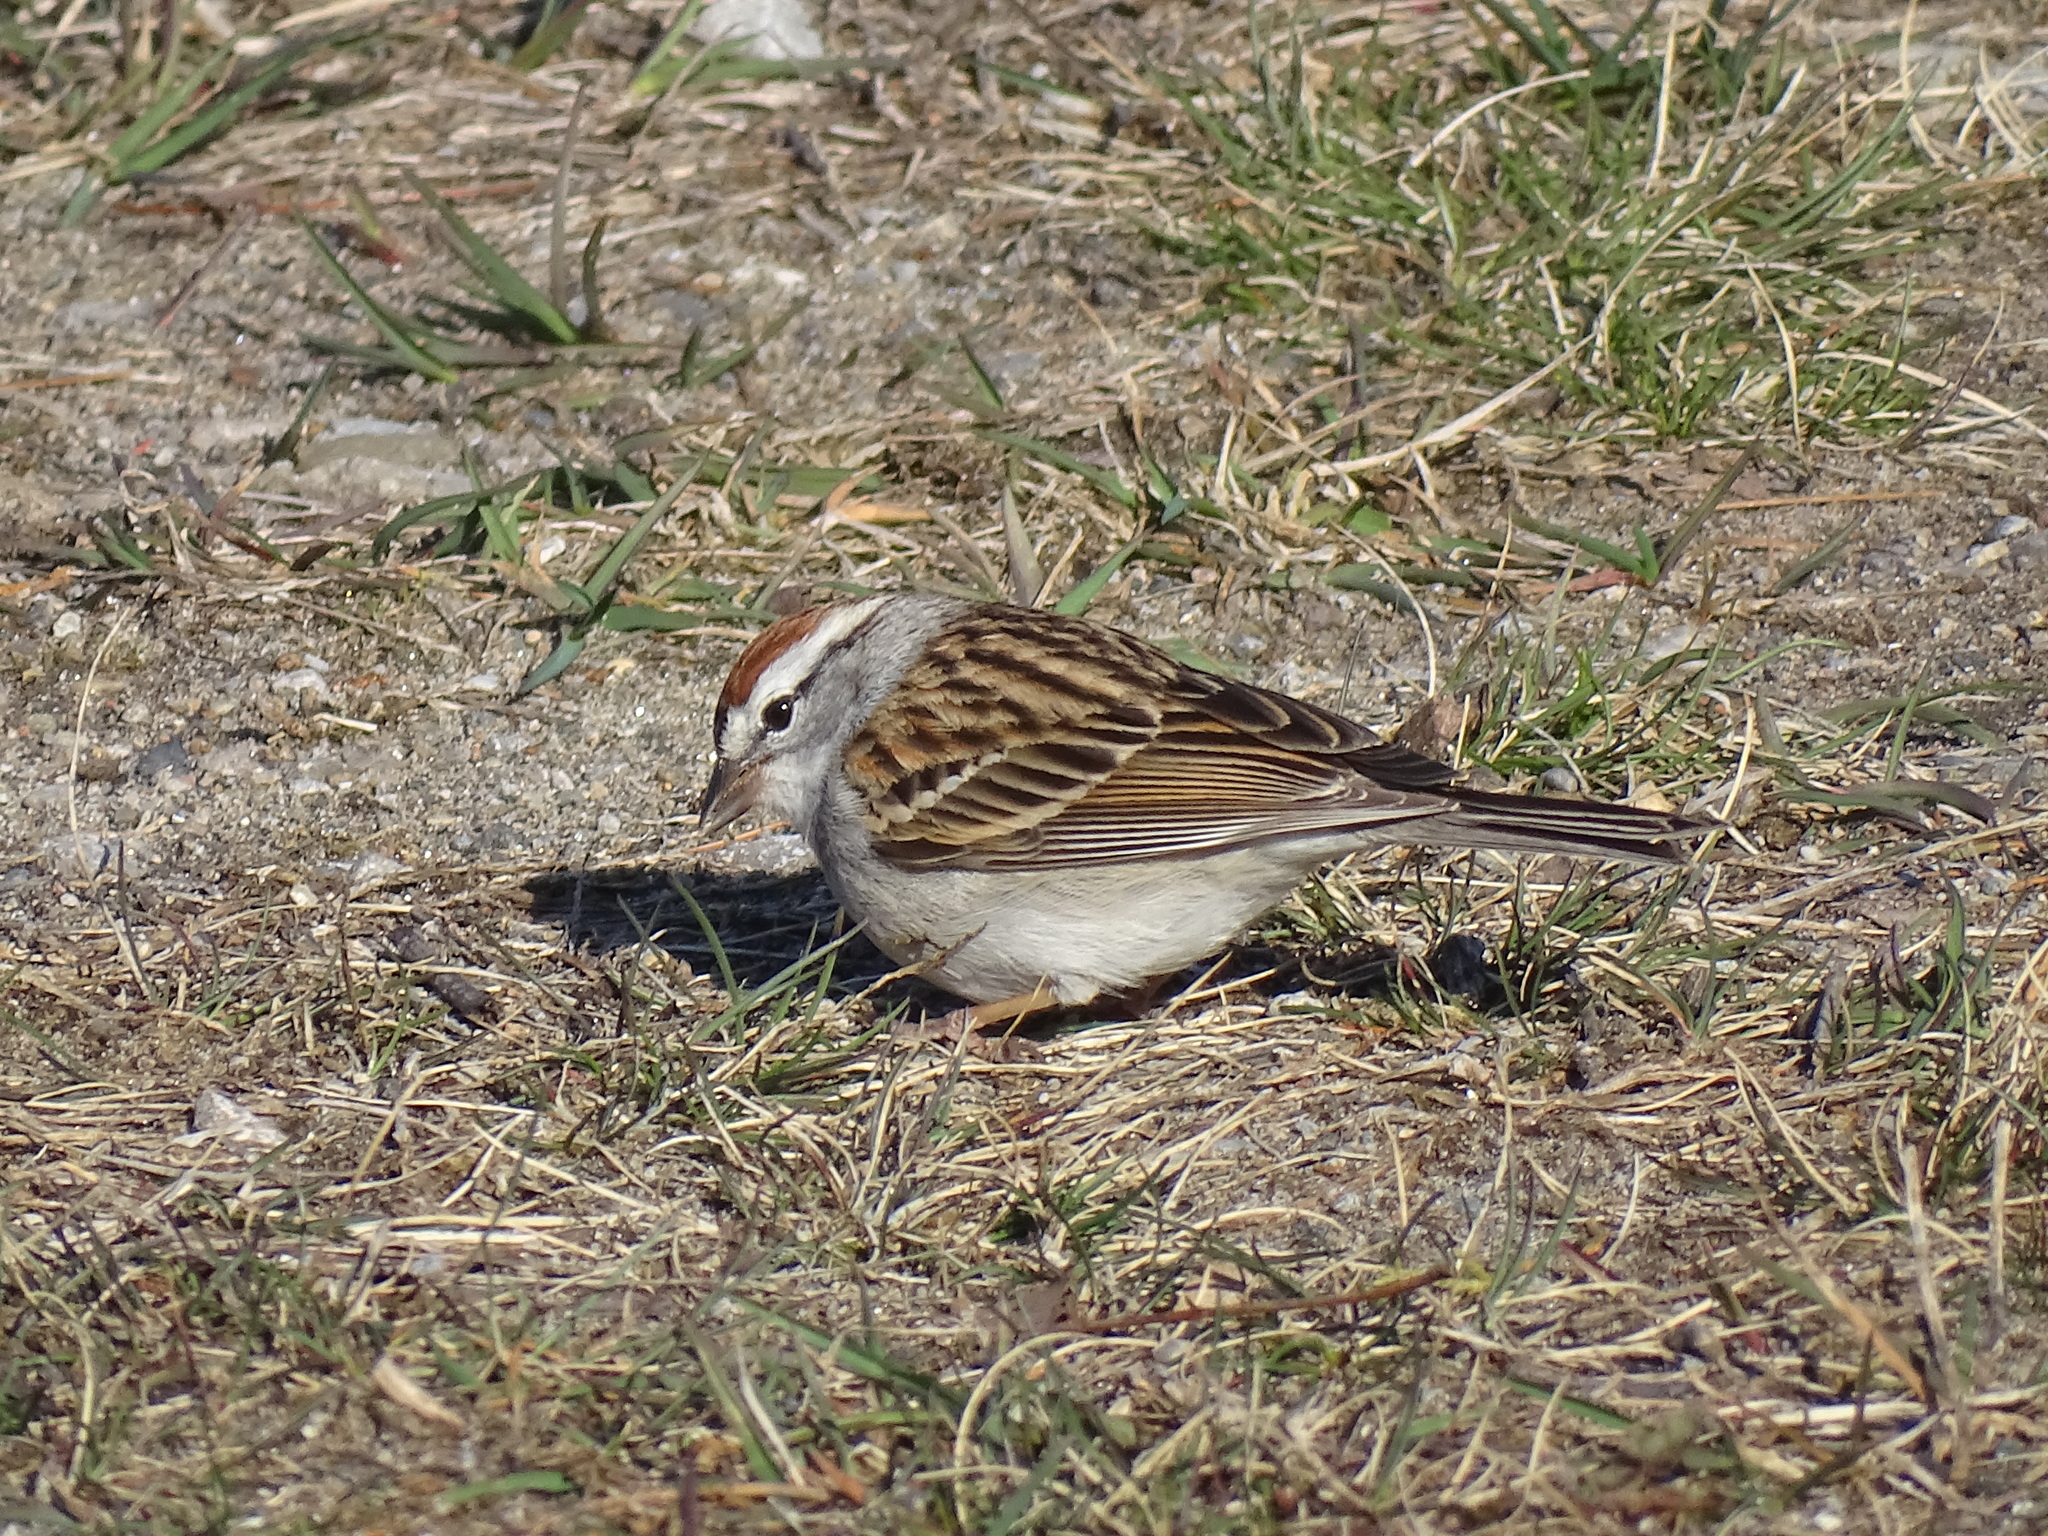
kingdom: Animalia
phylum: Chordata
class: Aves
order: Passeriformes
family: Passerellidae
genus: Spizella
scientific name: Spizella passerina
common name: Chipping sparrow
